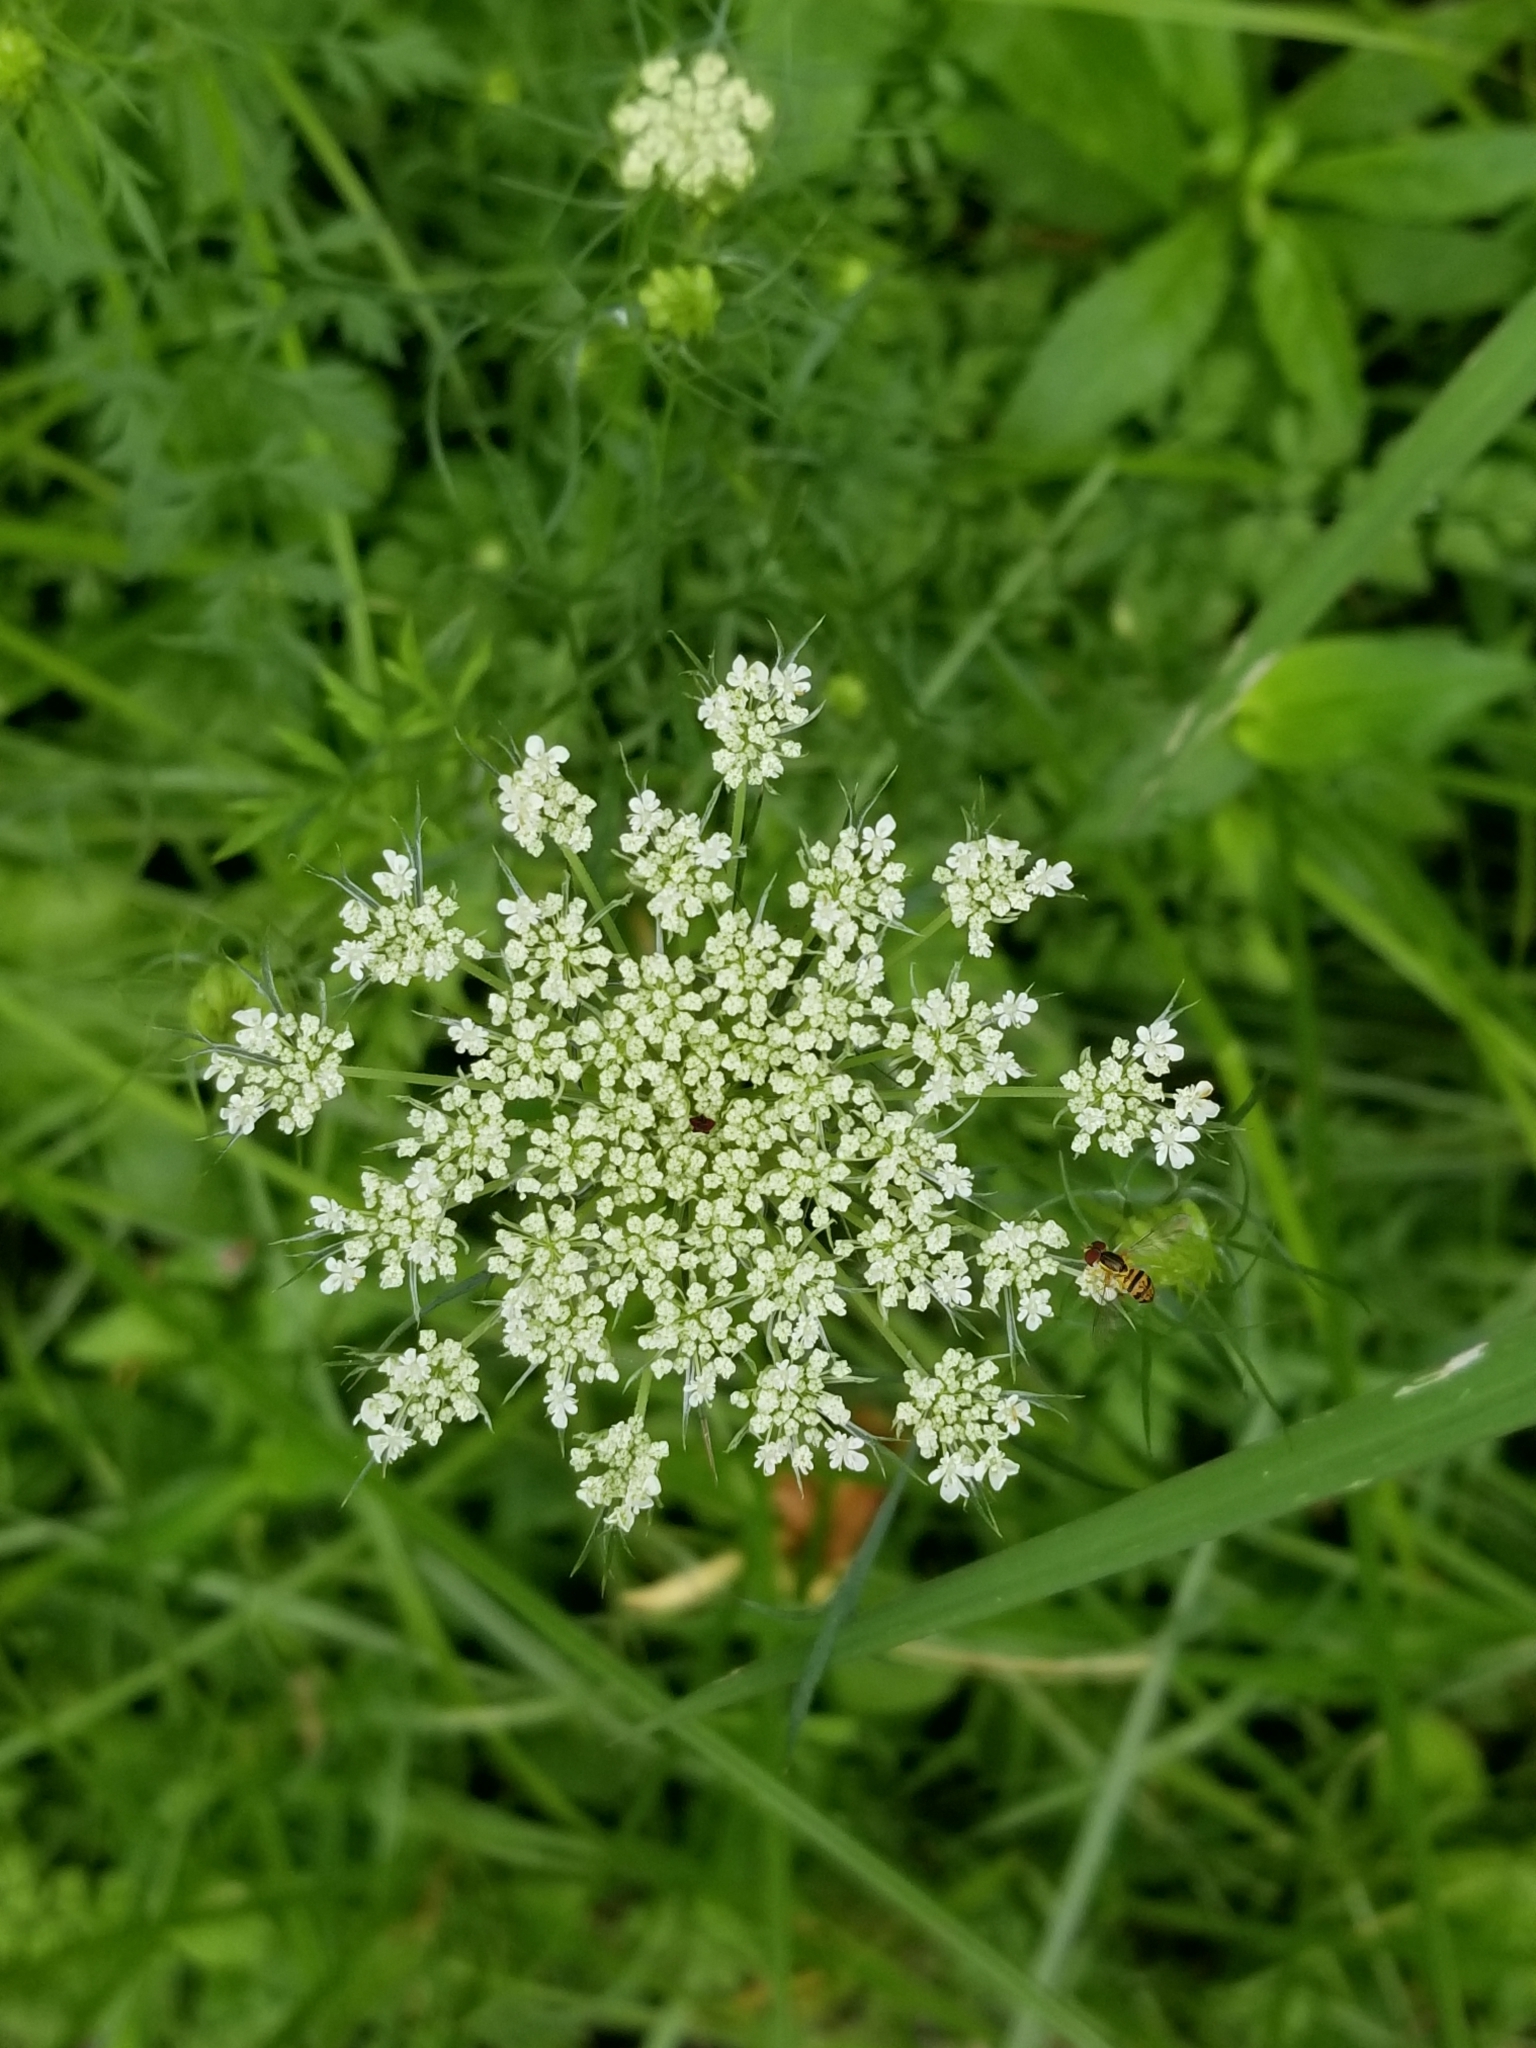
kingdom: Plantae
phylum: Tracheophyta
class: Magnoliopsida
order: Apiales
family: Apiaceae
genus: Daucus
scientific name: Daucus carota
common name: Wild carrot
